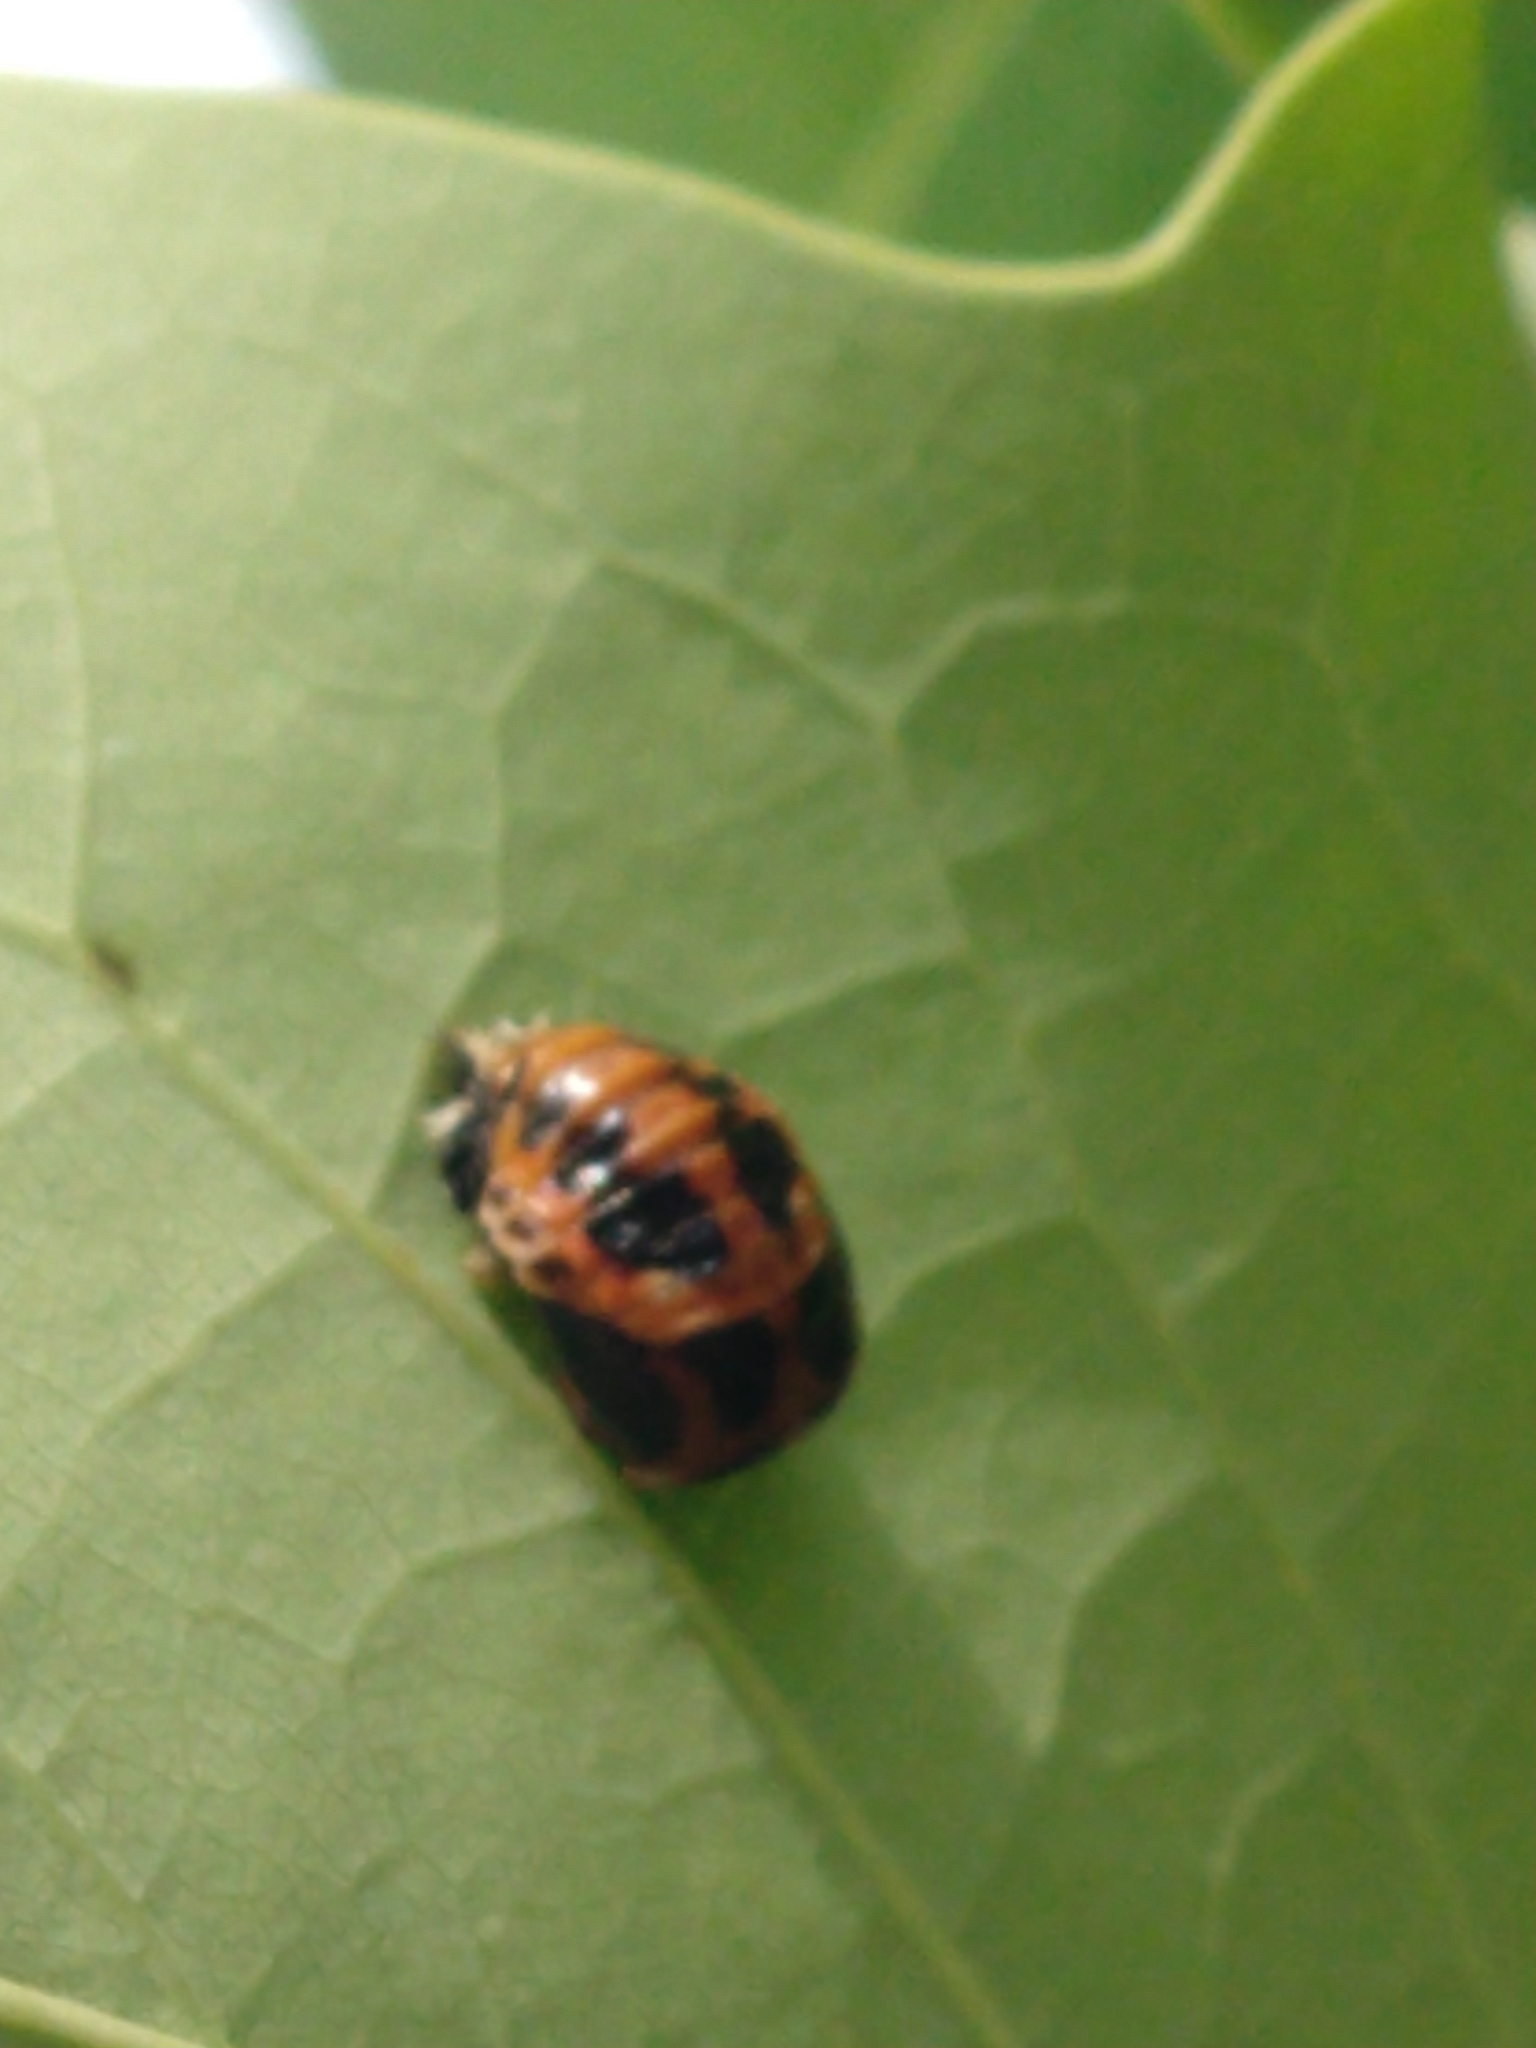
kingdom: Animalia
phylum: Arthropoda
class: Insecta
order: Coleoptera
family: Coccinellidae
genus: Harmonia
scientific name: Harmonia axyridis
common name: Harlequin ladybird
